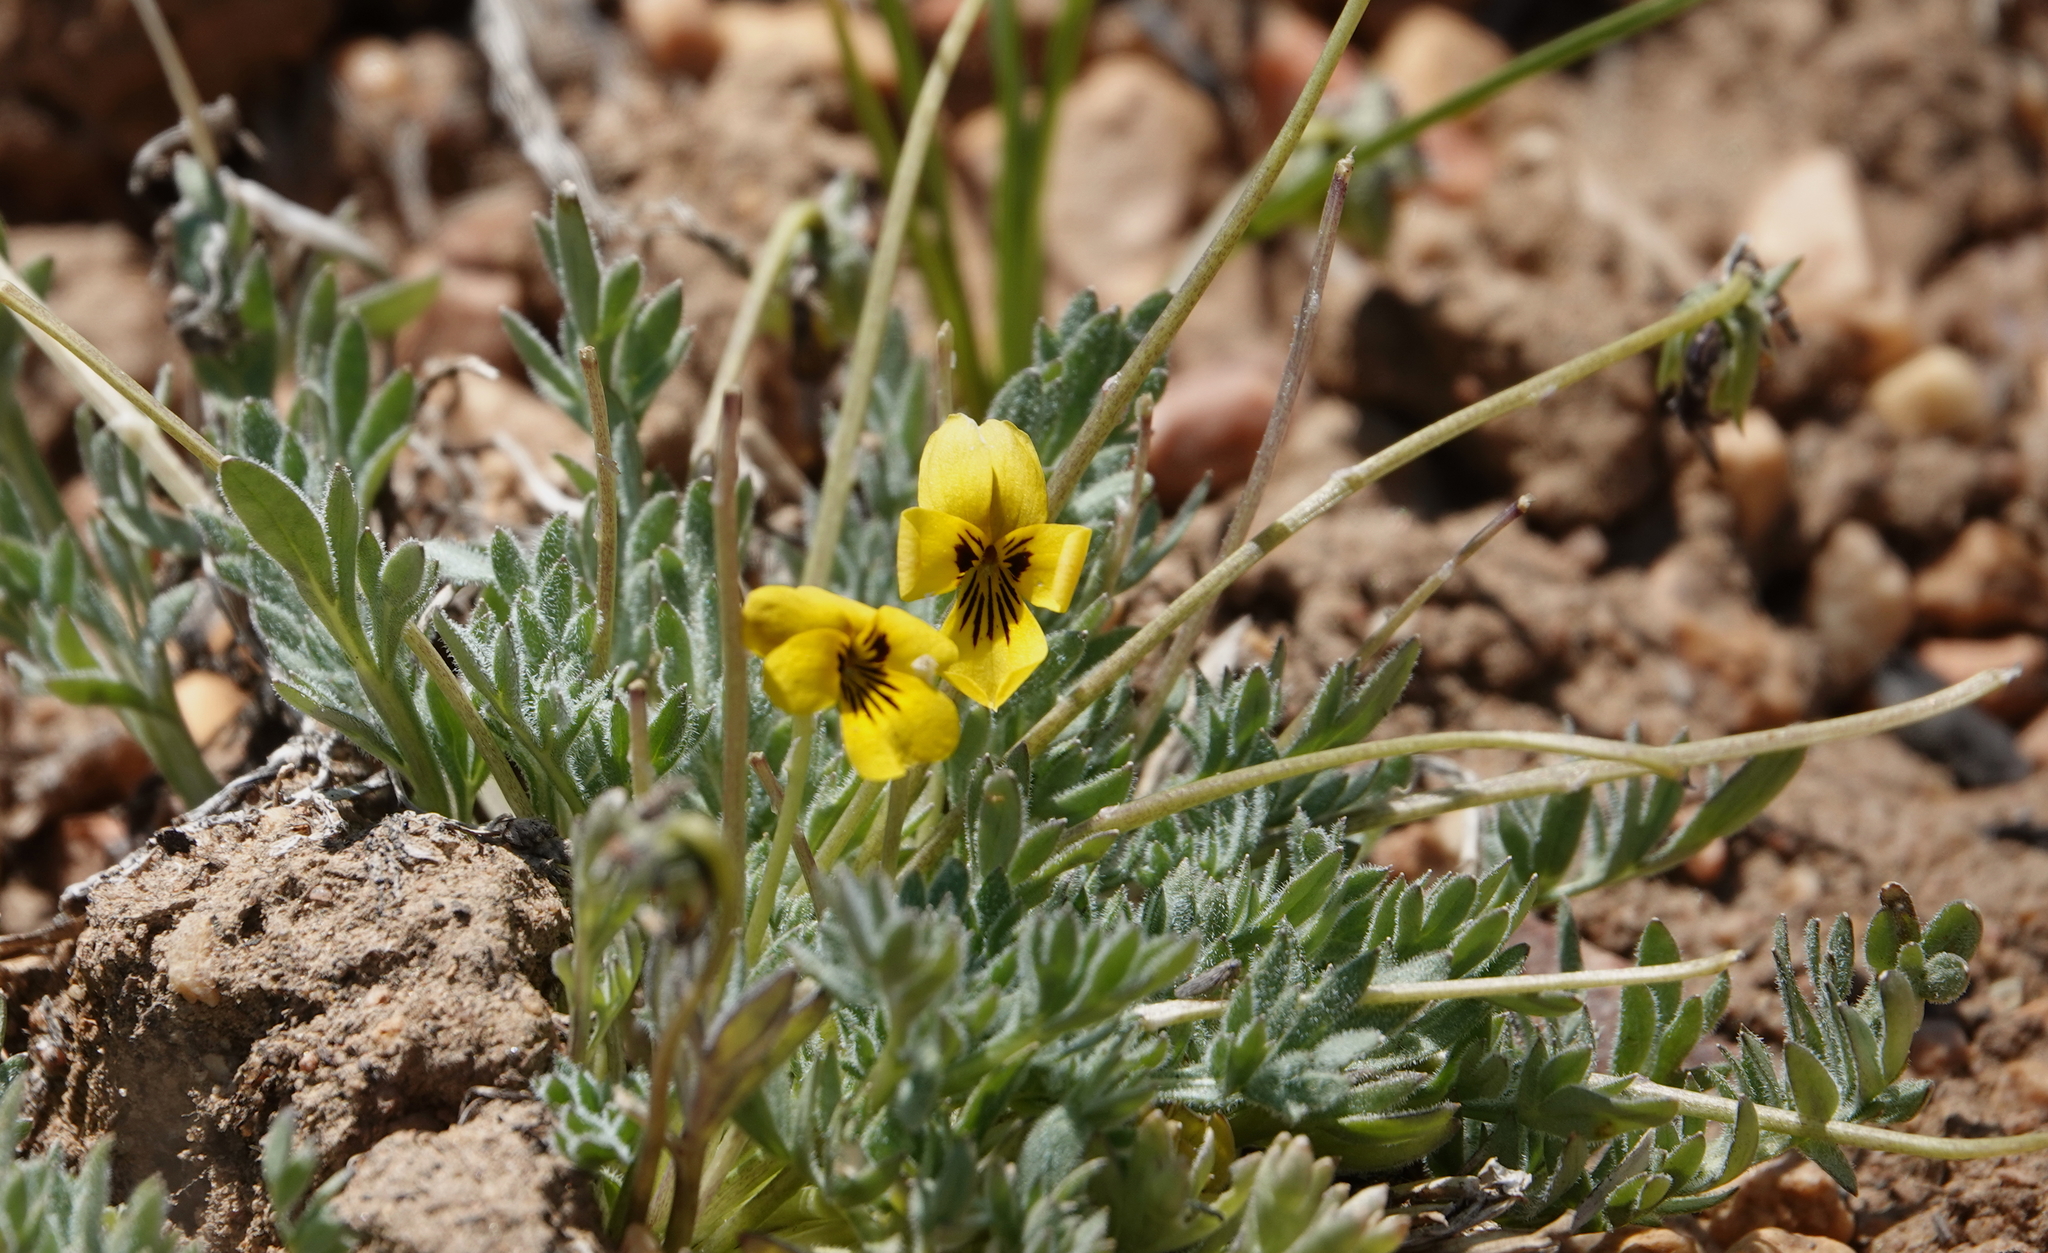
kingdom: Plantae
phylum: Tracheophyta
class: Magnoliopsida
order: Malpighiales
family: Violaceae
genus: Viola
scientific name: Viola douglasii
